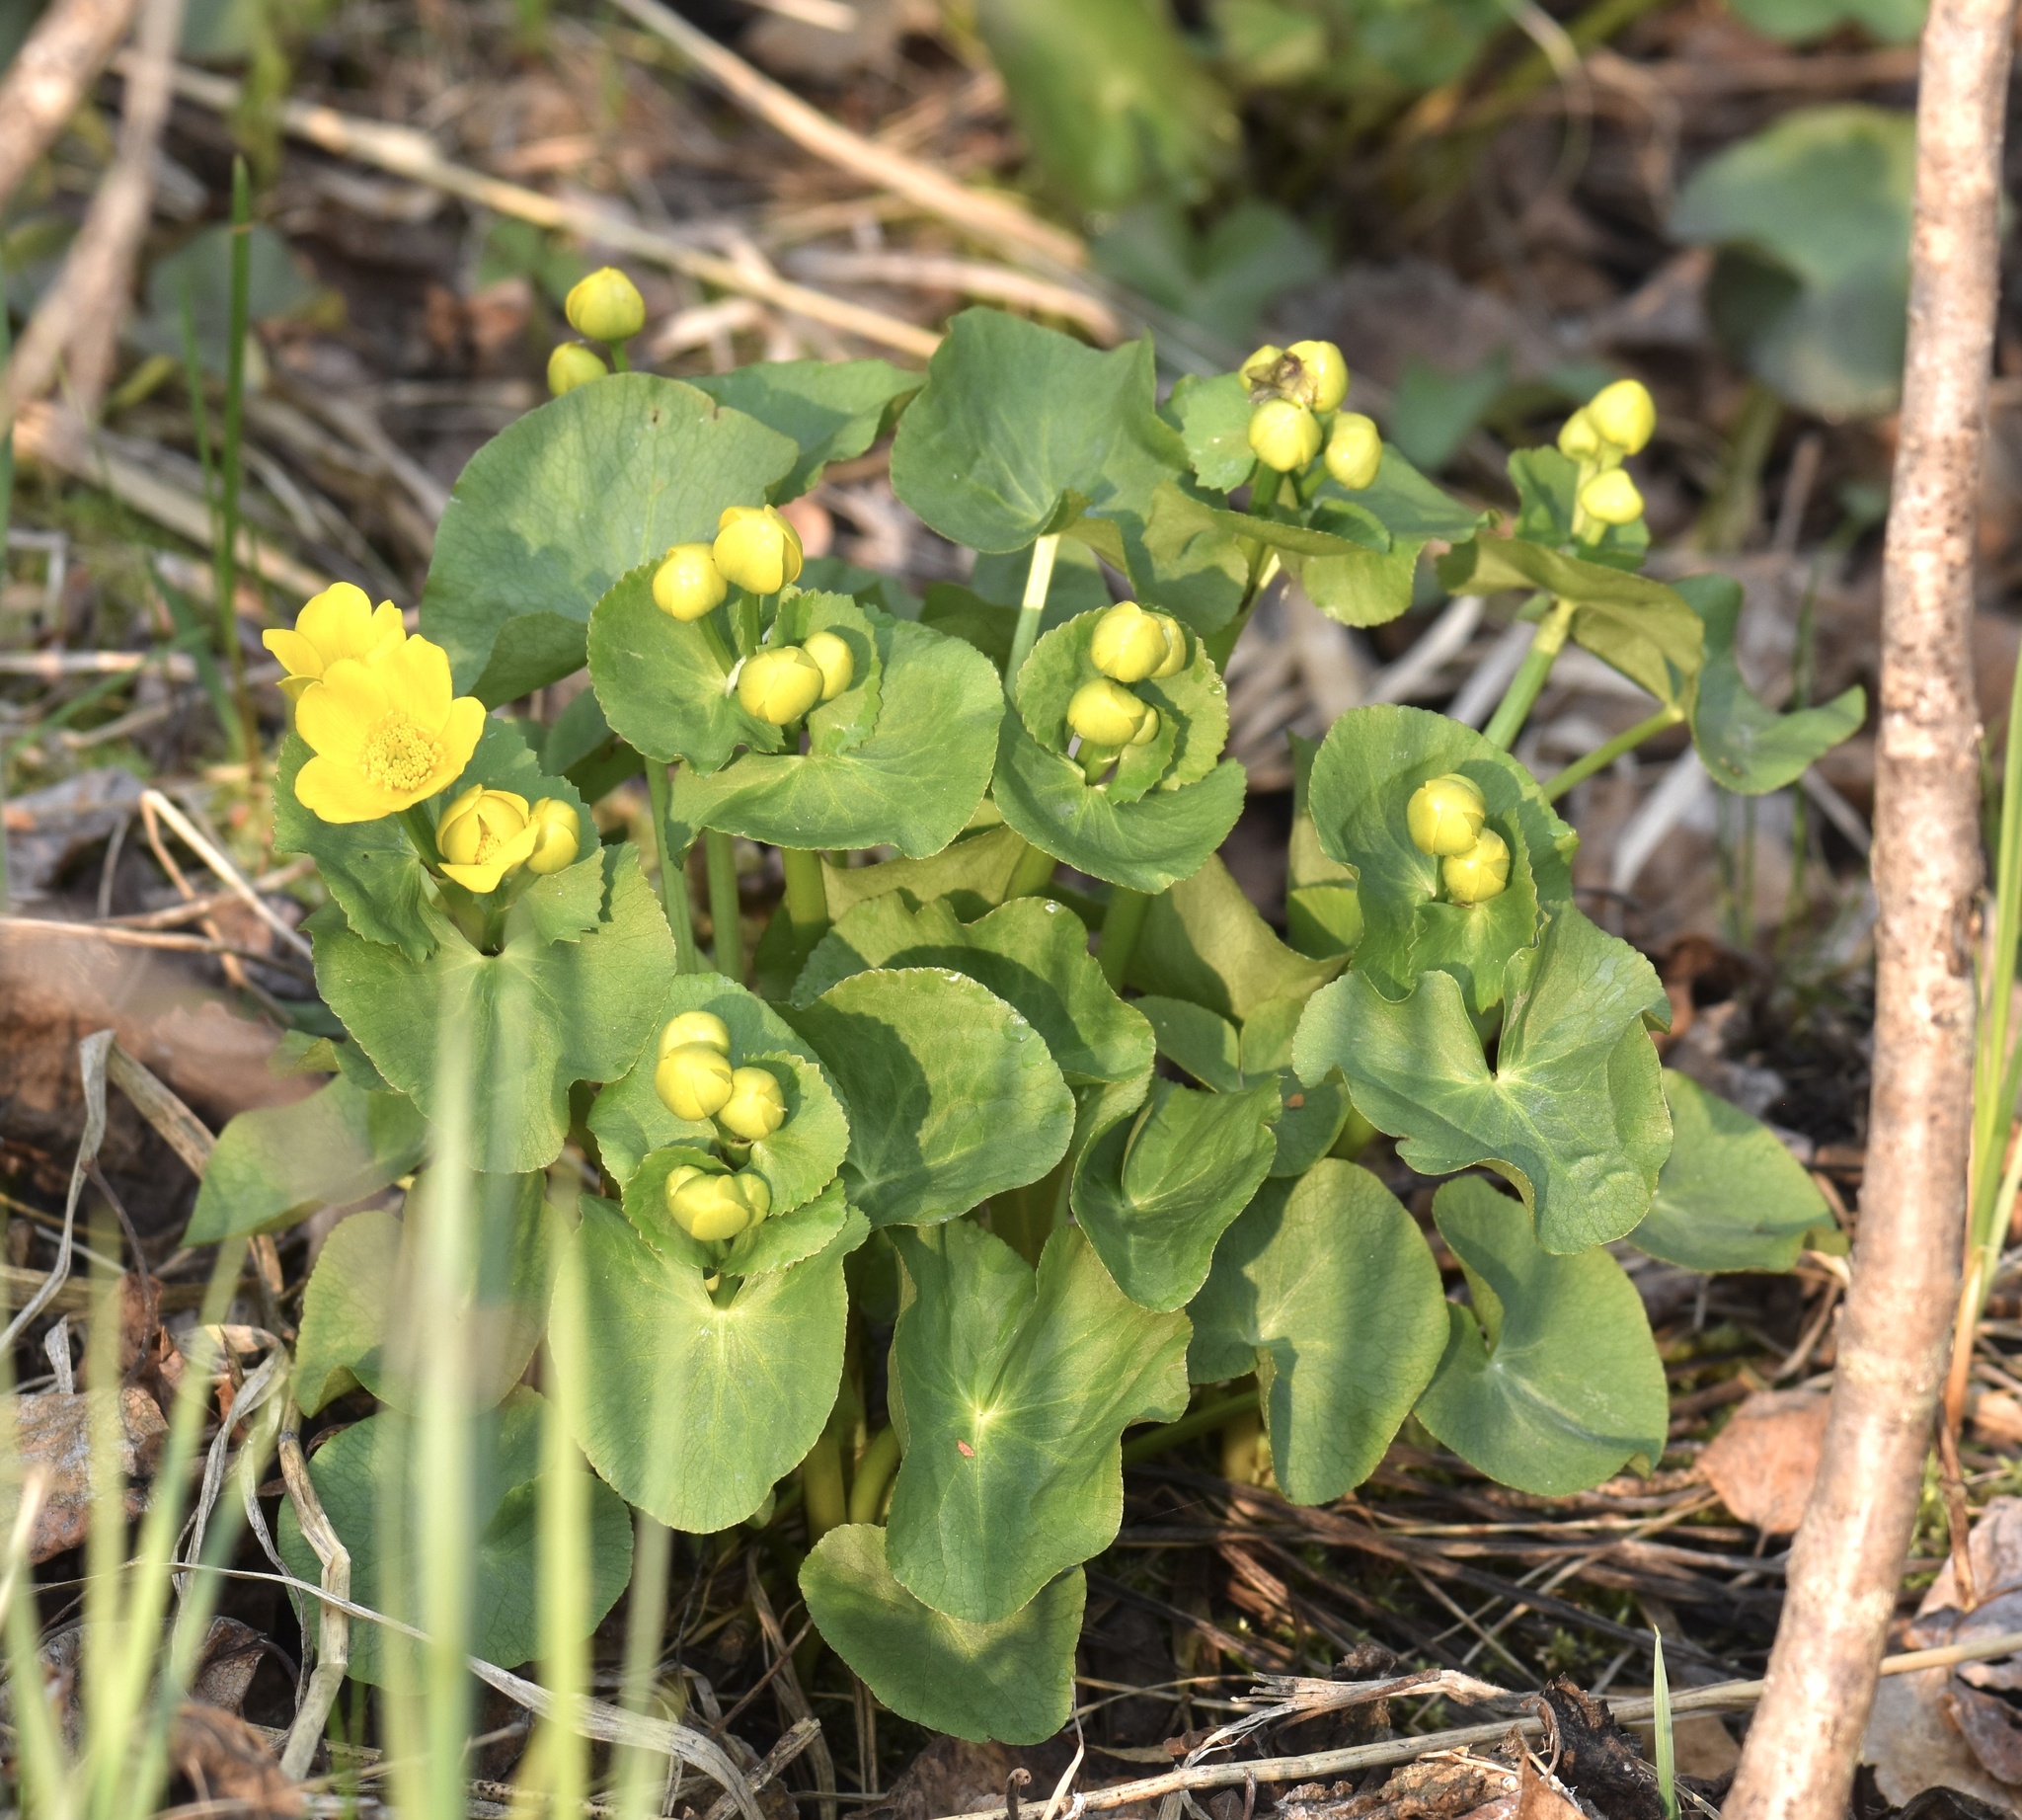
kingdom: Plantae
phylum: Tracheophyta
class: Magnoliopsida
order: Ranunculales
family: Ranunculaceae
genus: Caltha
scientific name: Caltha palustris
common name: Marsh marigold
